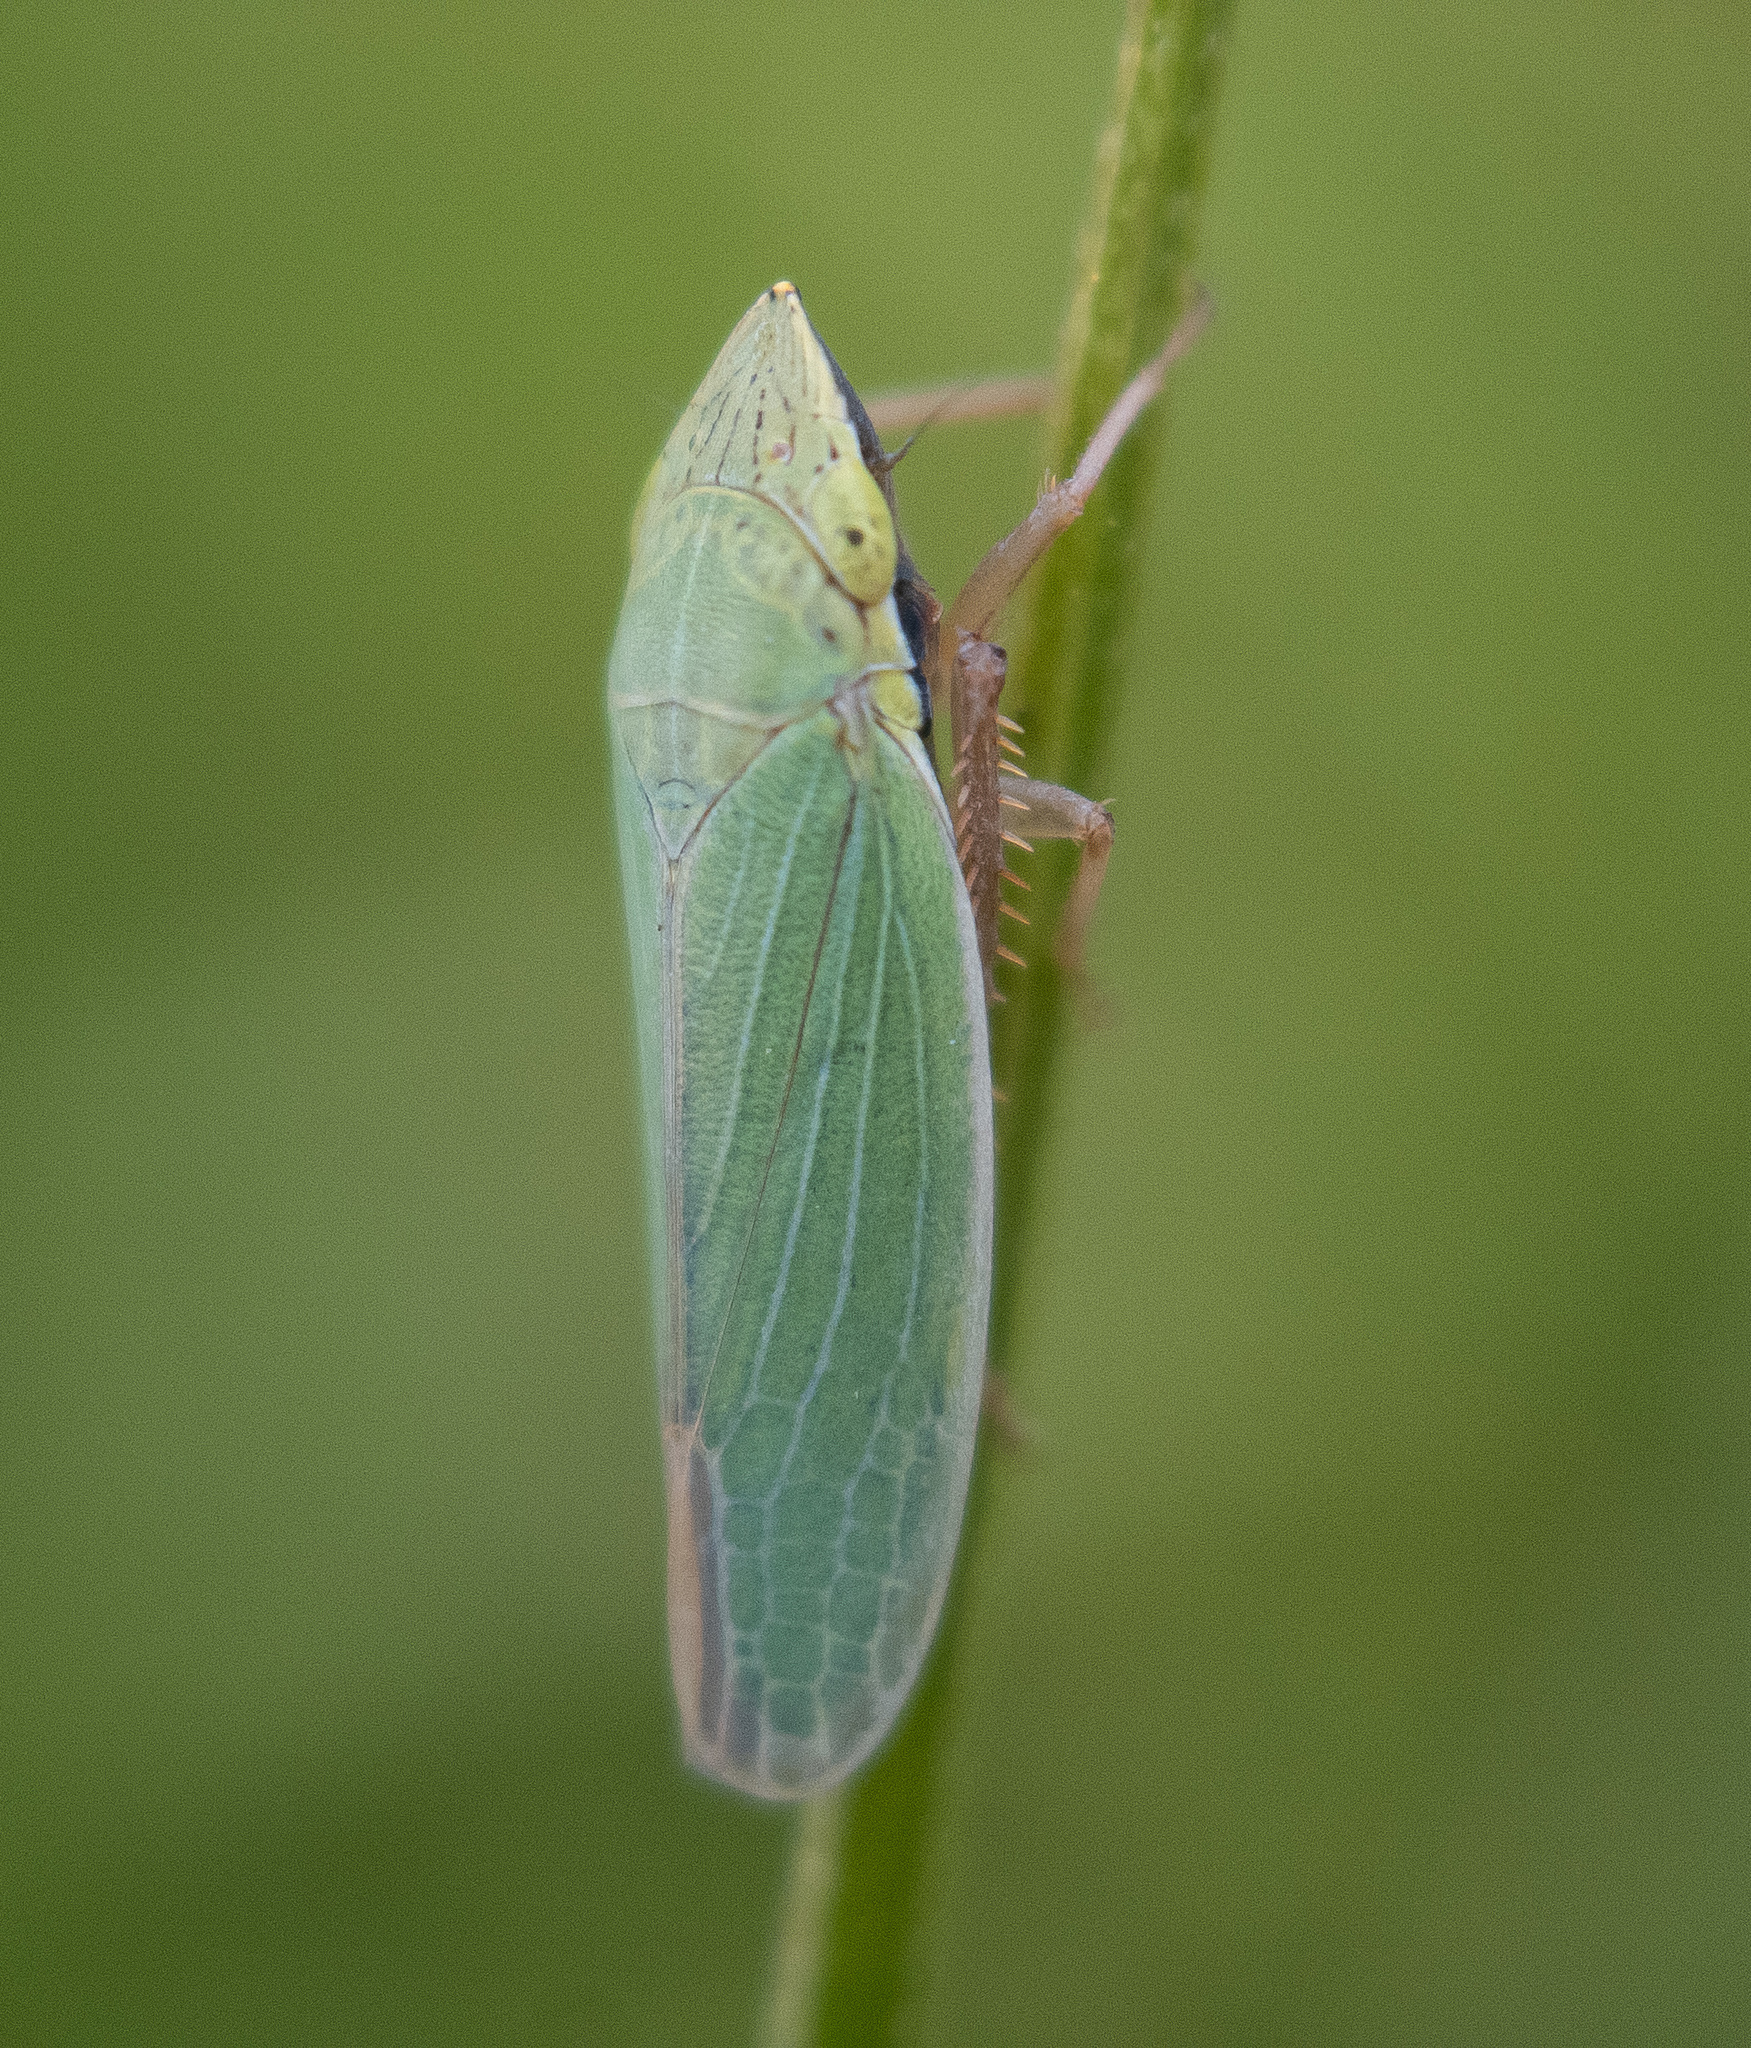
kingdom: Animalia
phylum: Arthropoda
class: Insecta
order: Hemiptera
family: Cicadellidae
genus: Draeculacephala
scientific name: Draeculacephala antica
